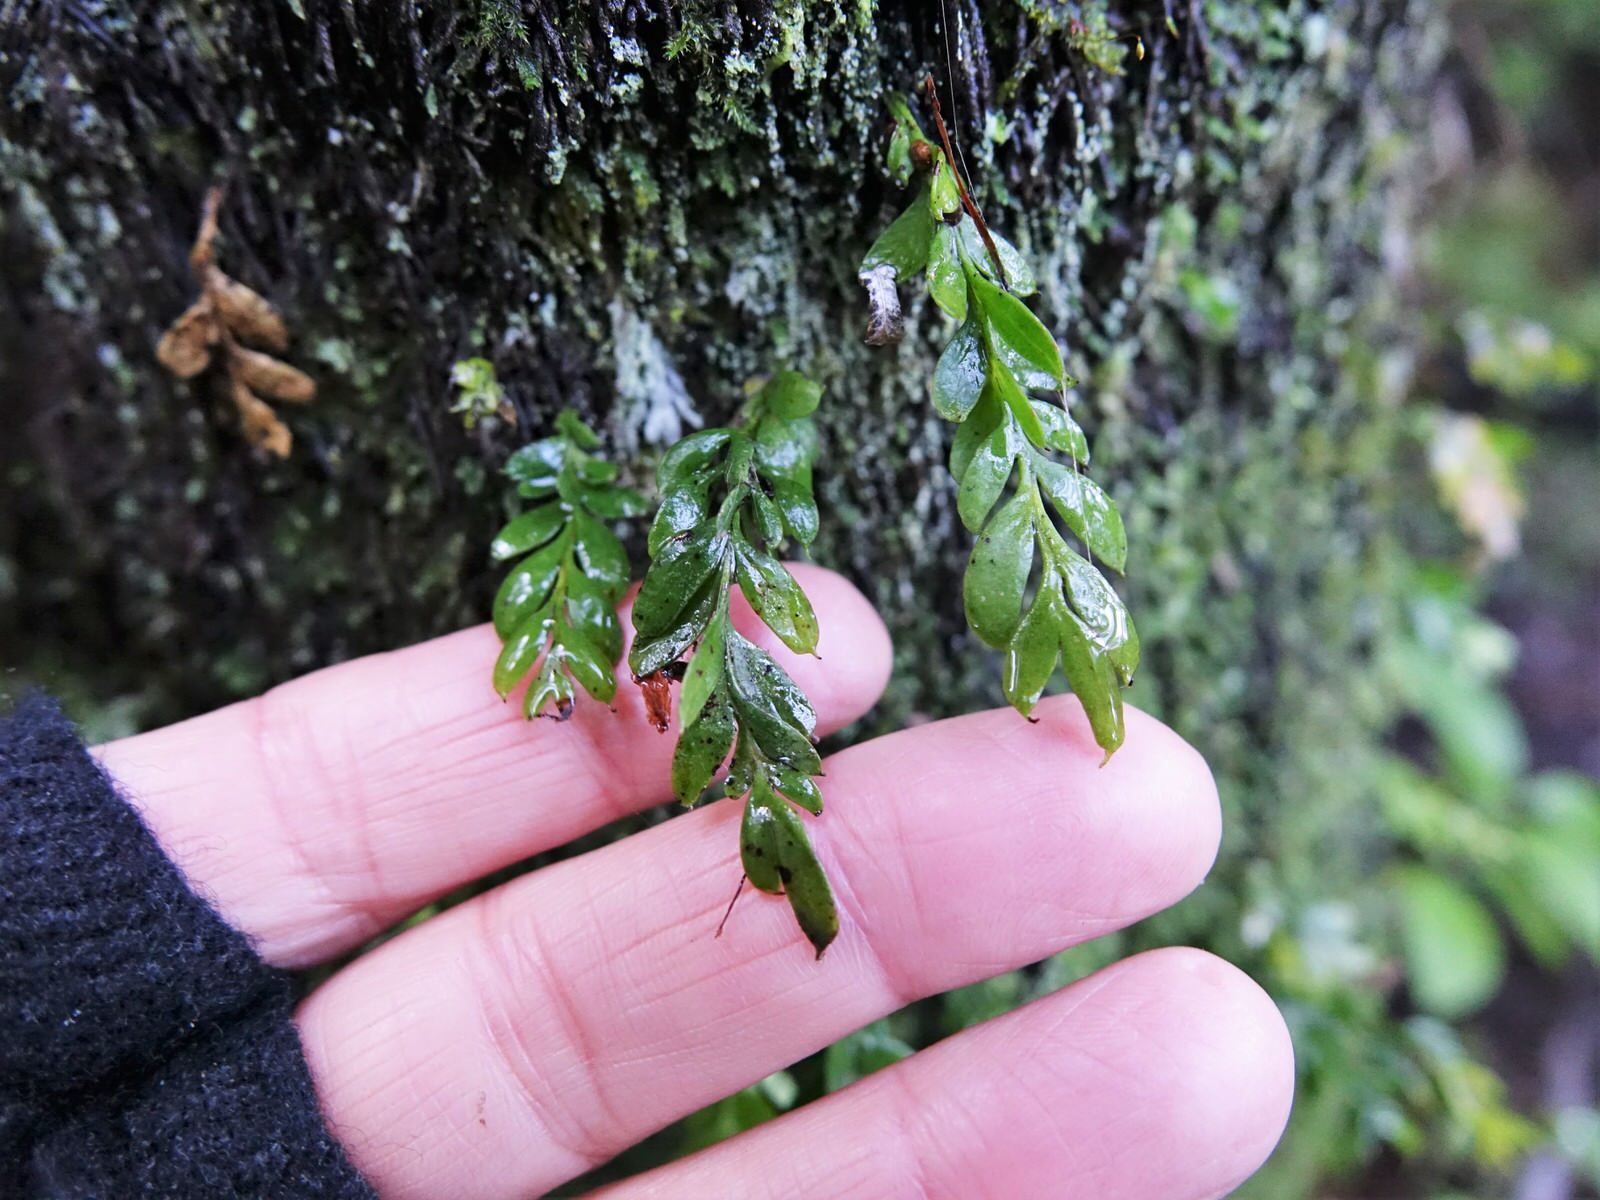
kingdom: Plantae
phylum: Tracheophyta
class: Polypodiopsida
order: Psilotales
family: Psilotaceae
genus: Tmesipteris
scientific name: Tmesipteris lanceolata
